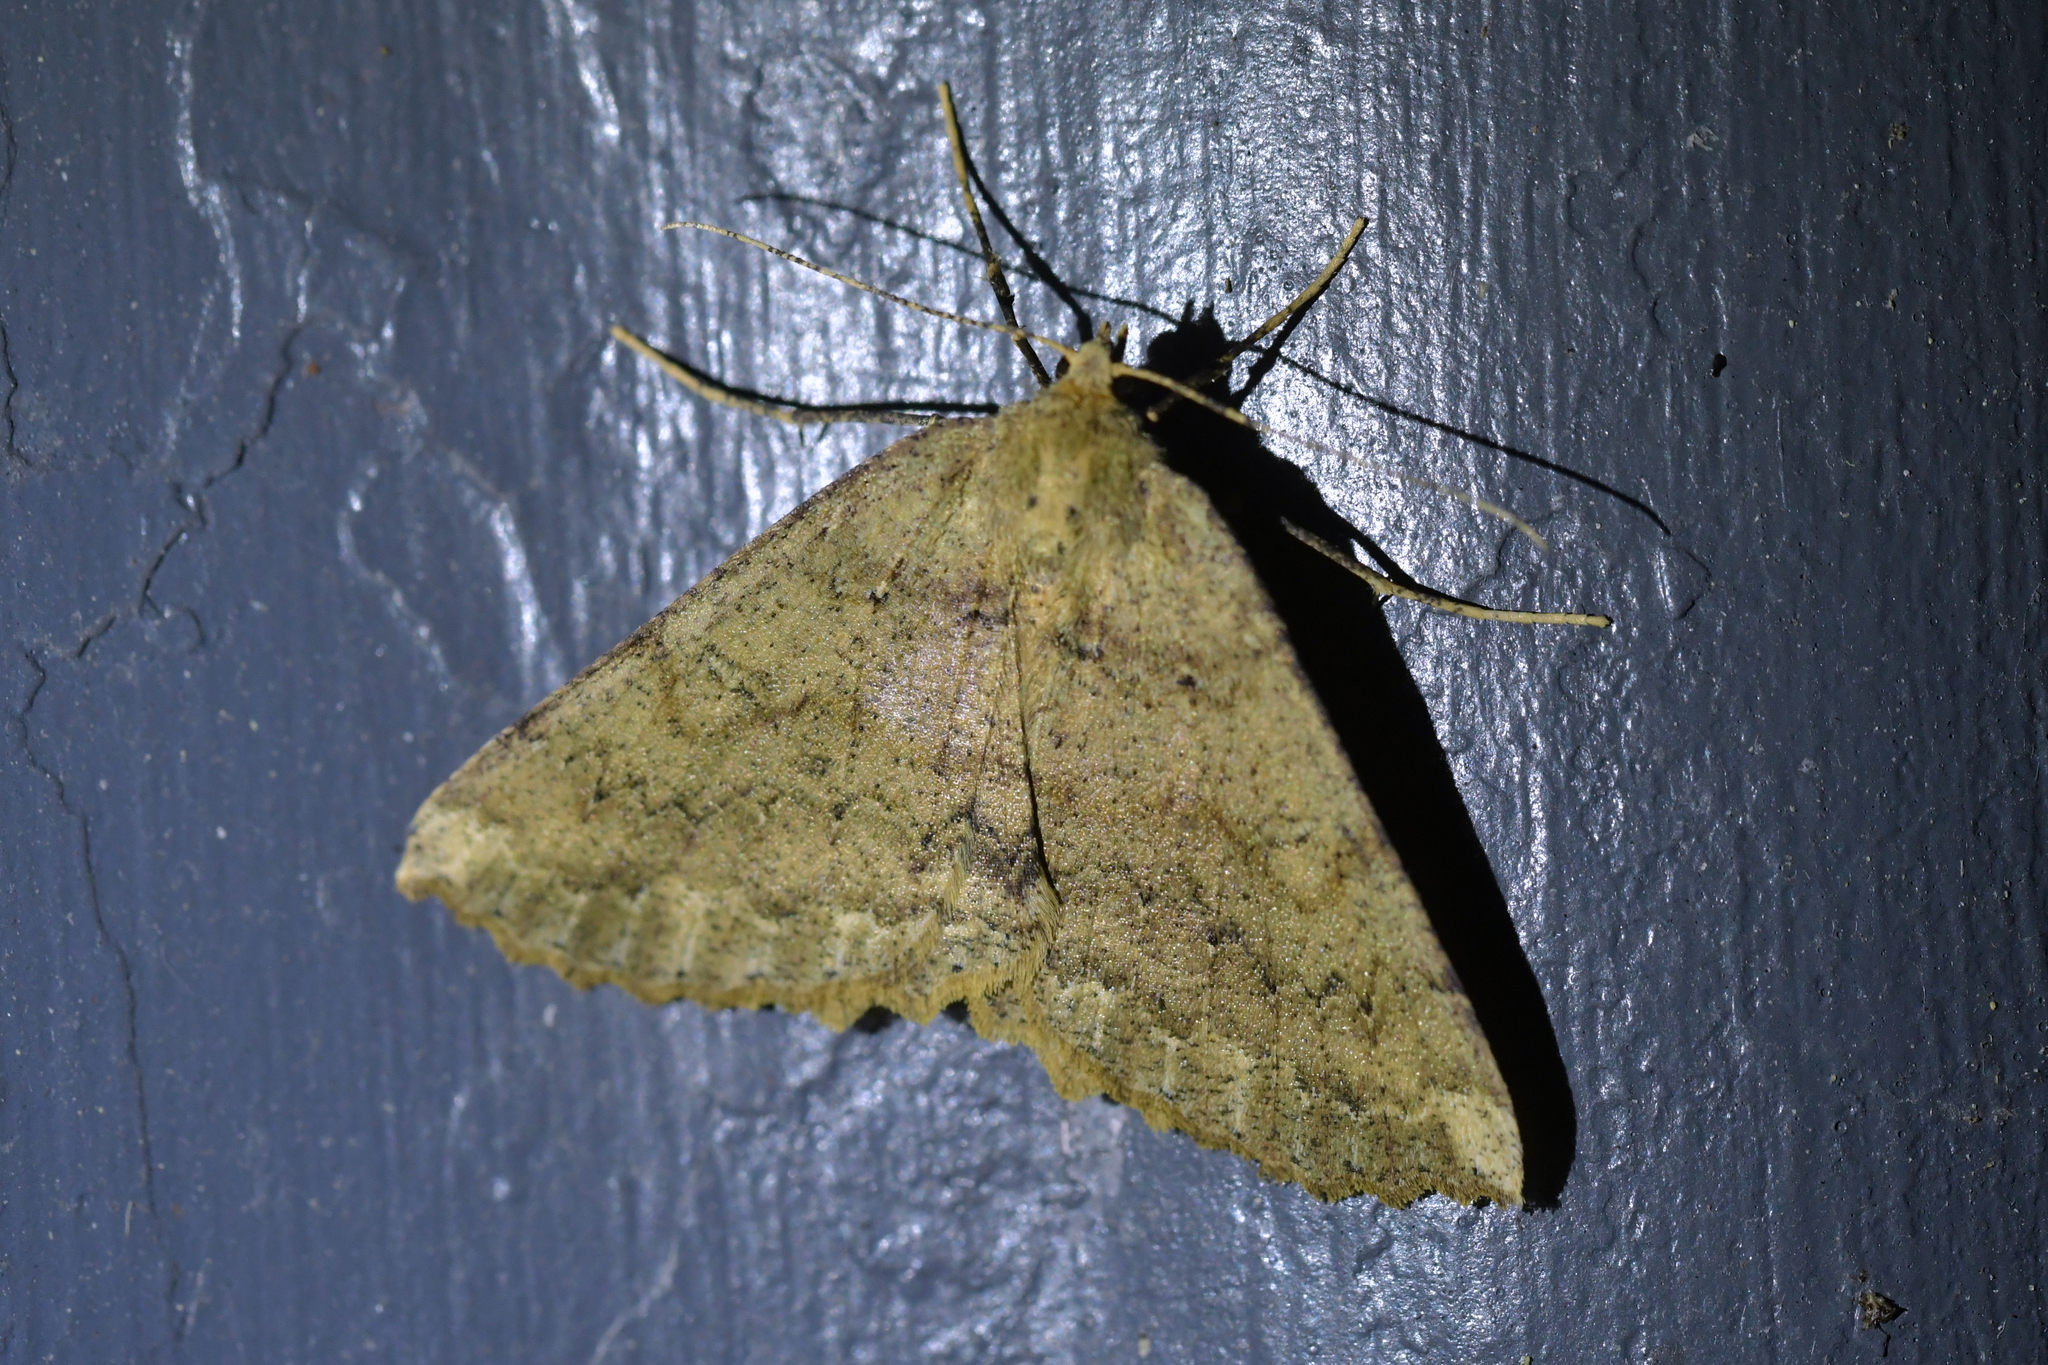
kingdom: Animalia
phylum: Arthropoda
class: Insecta
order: Lepidoptera
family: Geometridae
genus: Cleora
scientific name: Cleora scriptaria
